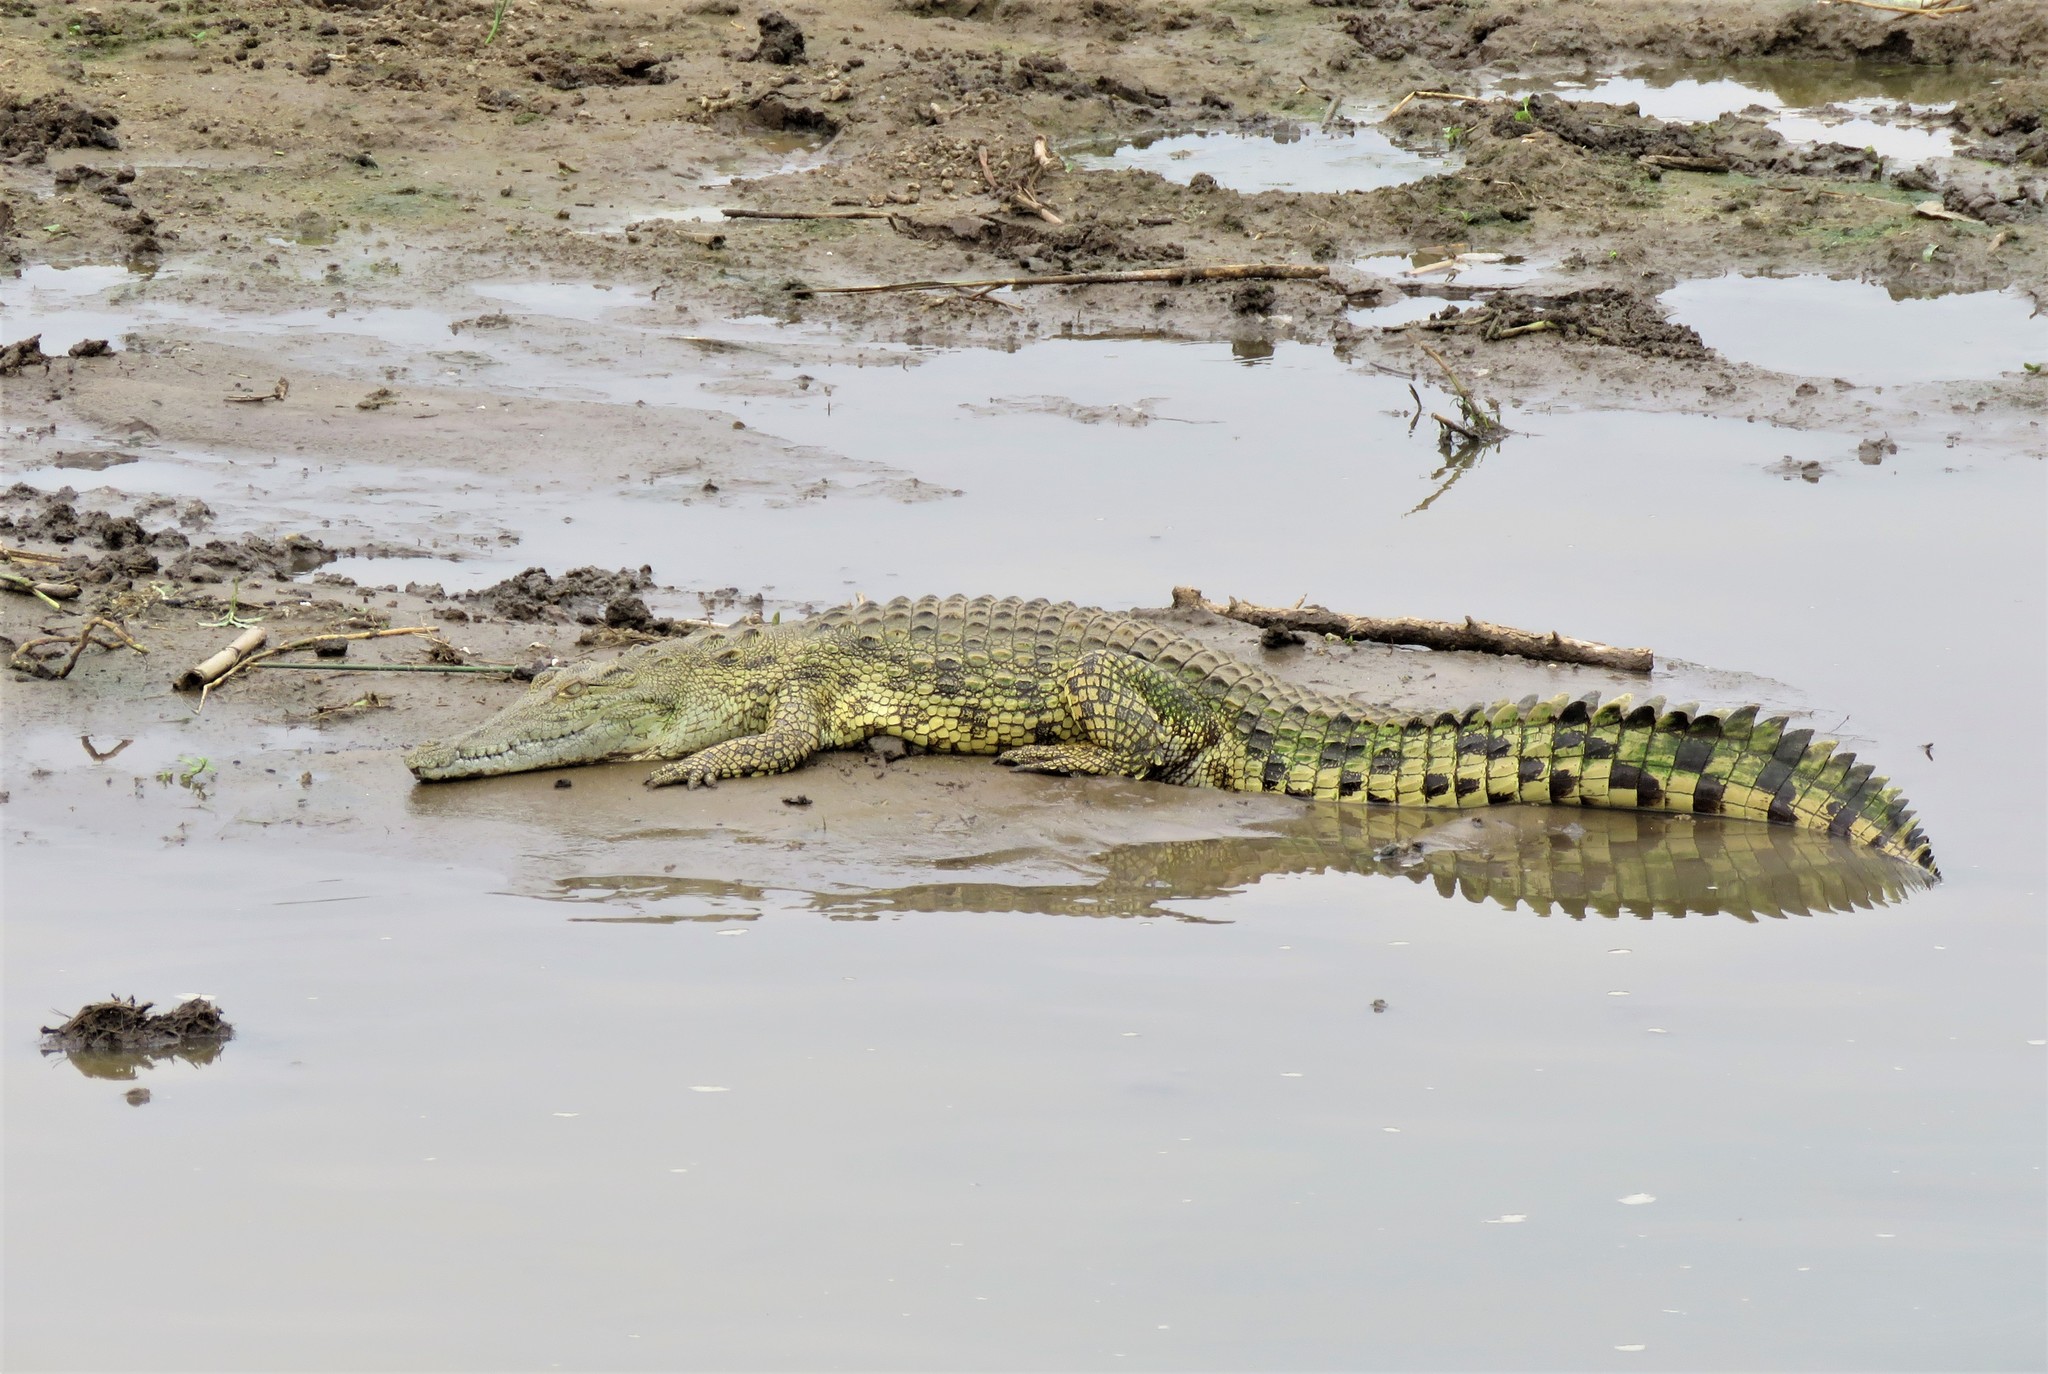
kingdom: Animalia
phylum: Chordata
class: Crocodylia
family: Crocodylidae
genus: Crocodylus
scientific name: Crocodylus niloticus
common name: Nile crocodile
